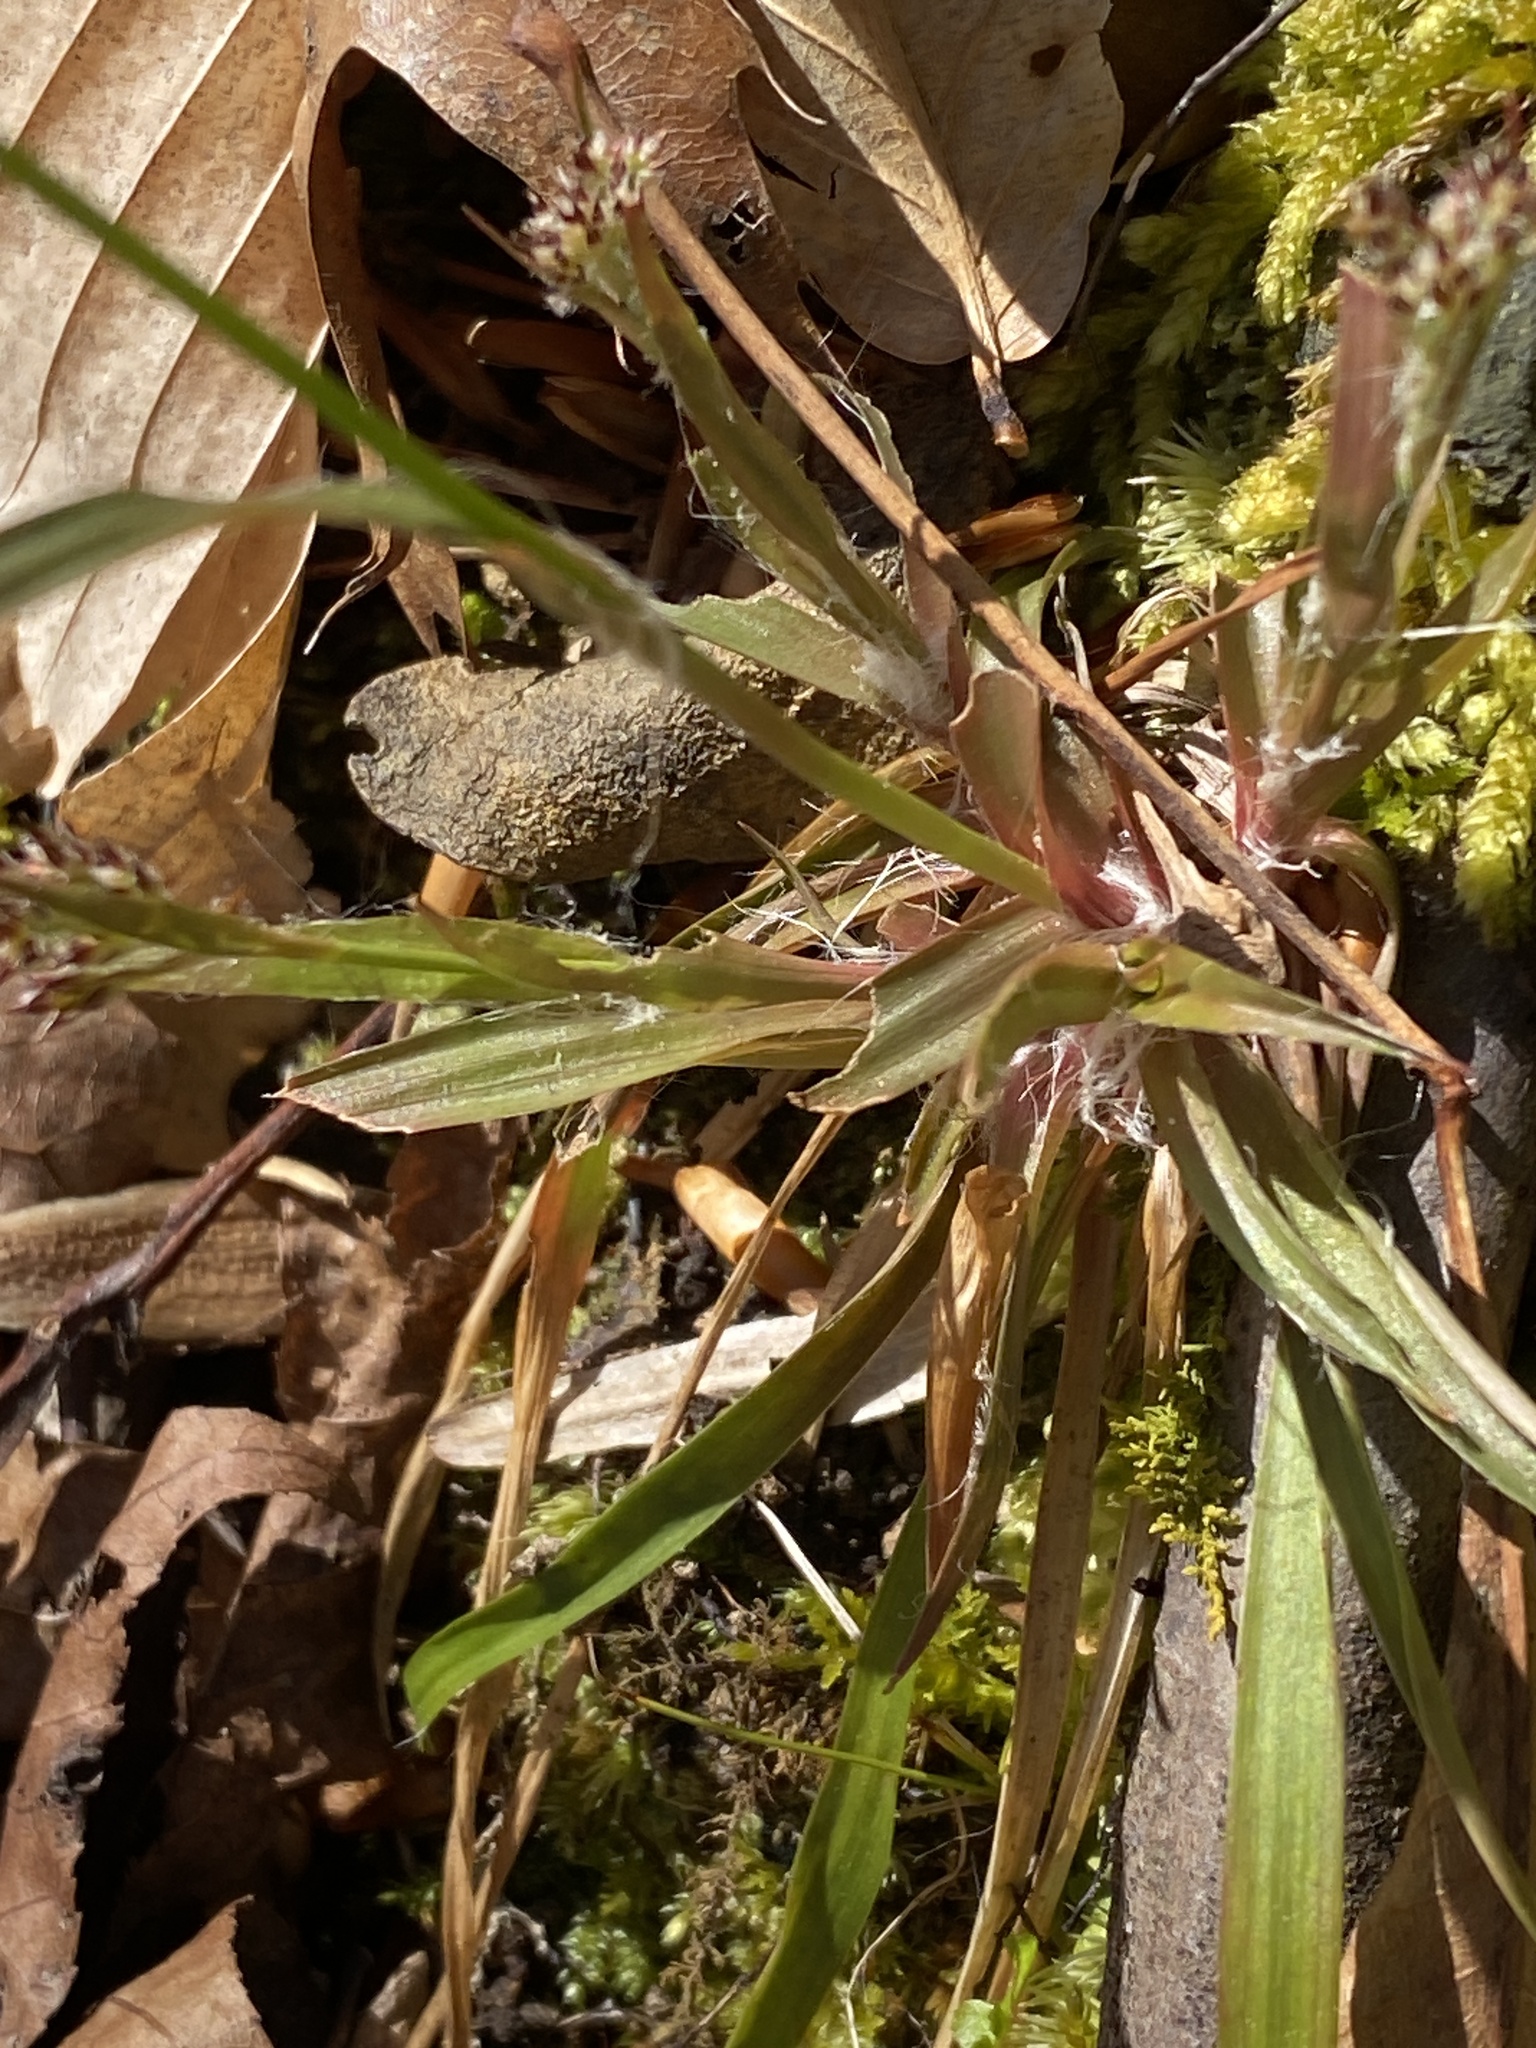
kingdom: Plantae
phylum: Tracheophyta
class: Liliopsida
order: Poales
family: Juncaceae
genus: Luzula
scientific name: Luzula echinata
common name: Hedgehog woodrush
